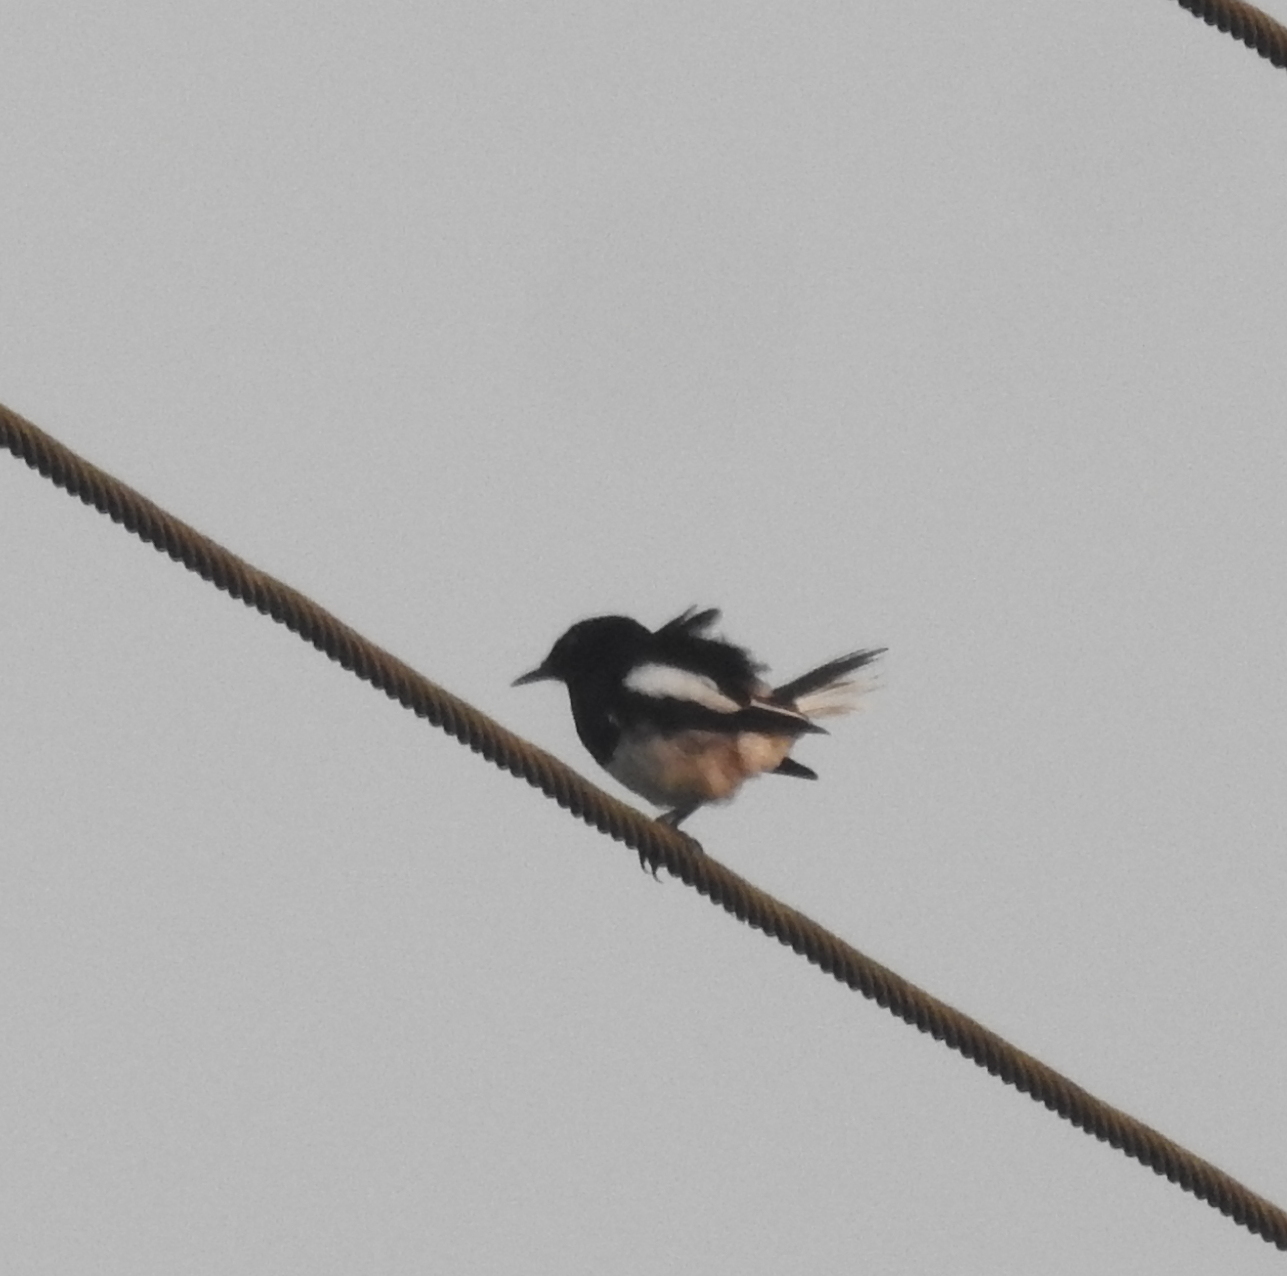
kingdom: Animalia
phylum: Chordata
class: Aves
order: Passeriformes
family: Muscicapidae
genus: Copsychus
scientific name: Copsychus saularis
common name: Oriental magpie-robin
